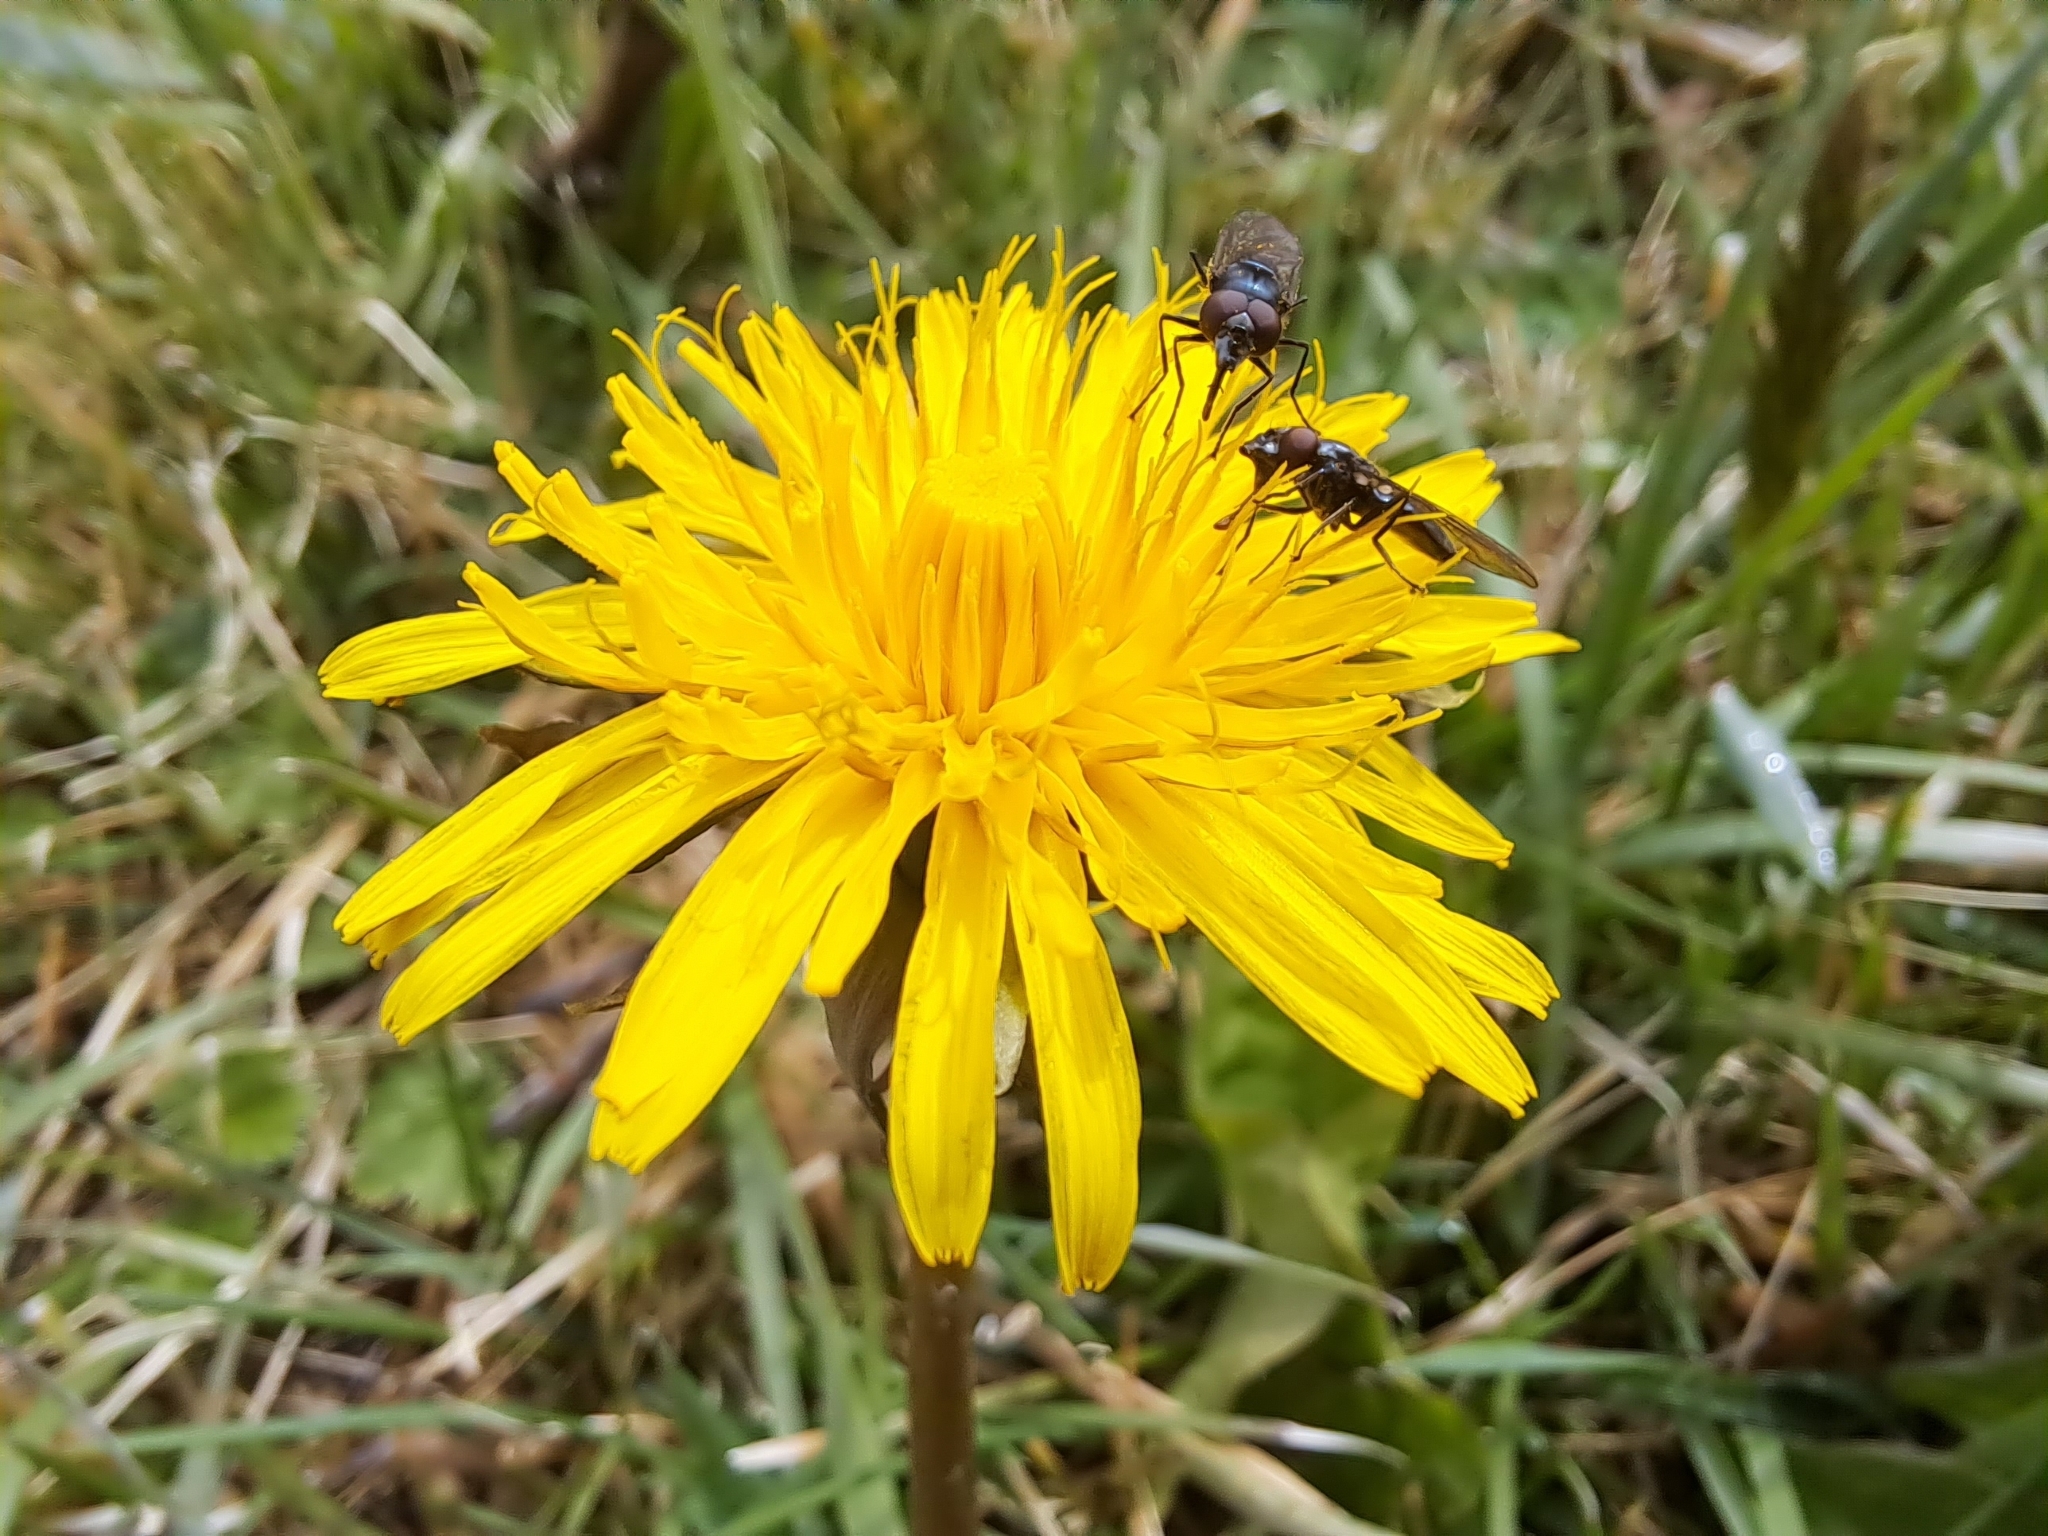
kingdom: Plantae
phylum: Tracheophyta
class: Magnoliopsida
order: Asterales
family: Asteraceae
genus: Taraxacum
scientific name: Taraxacum officinale
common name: Common dandelion
